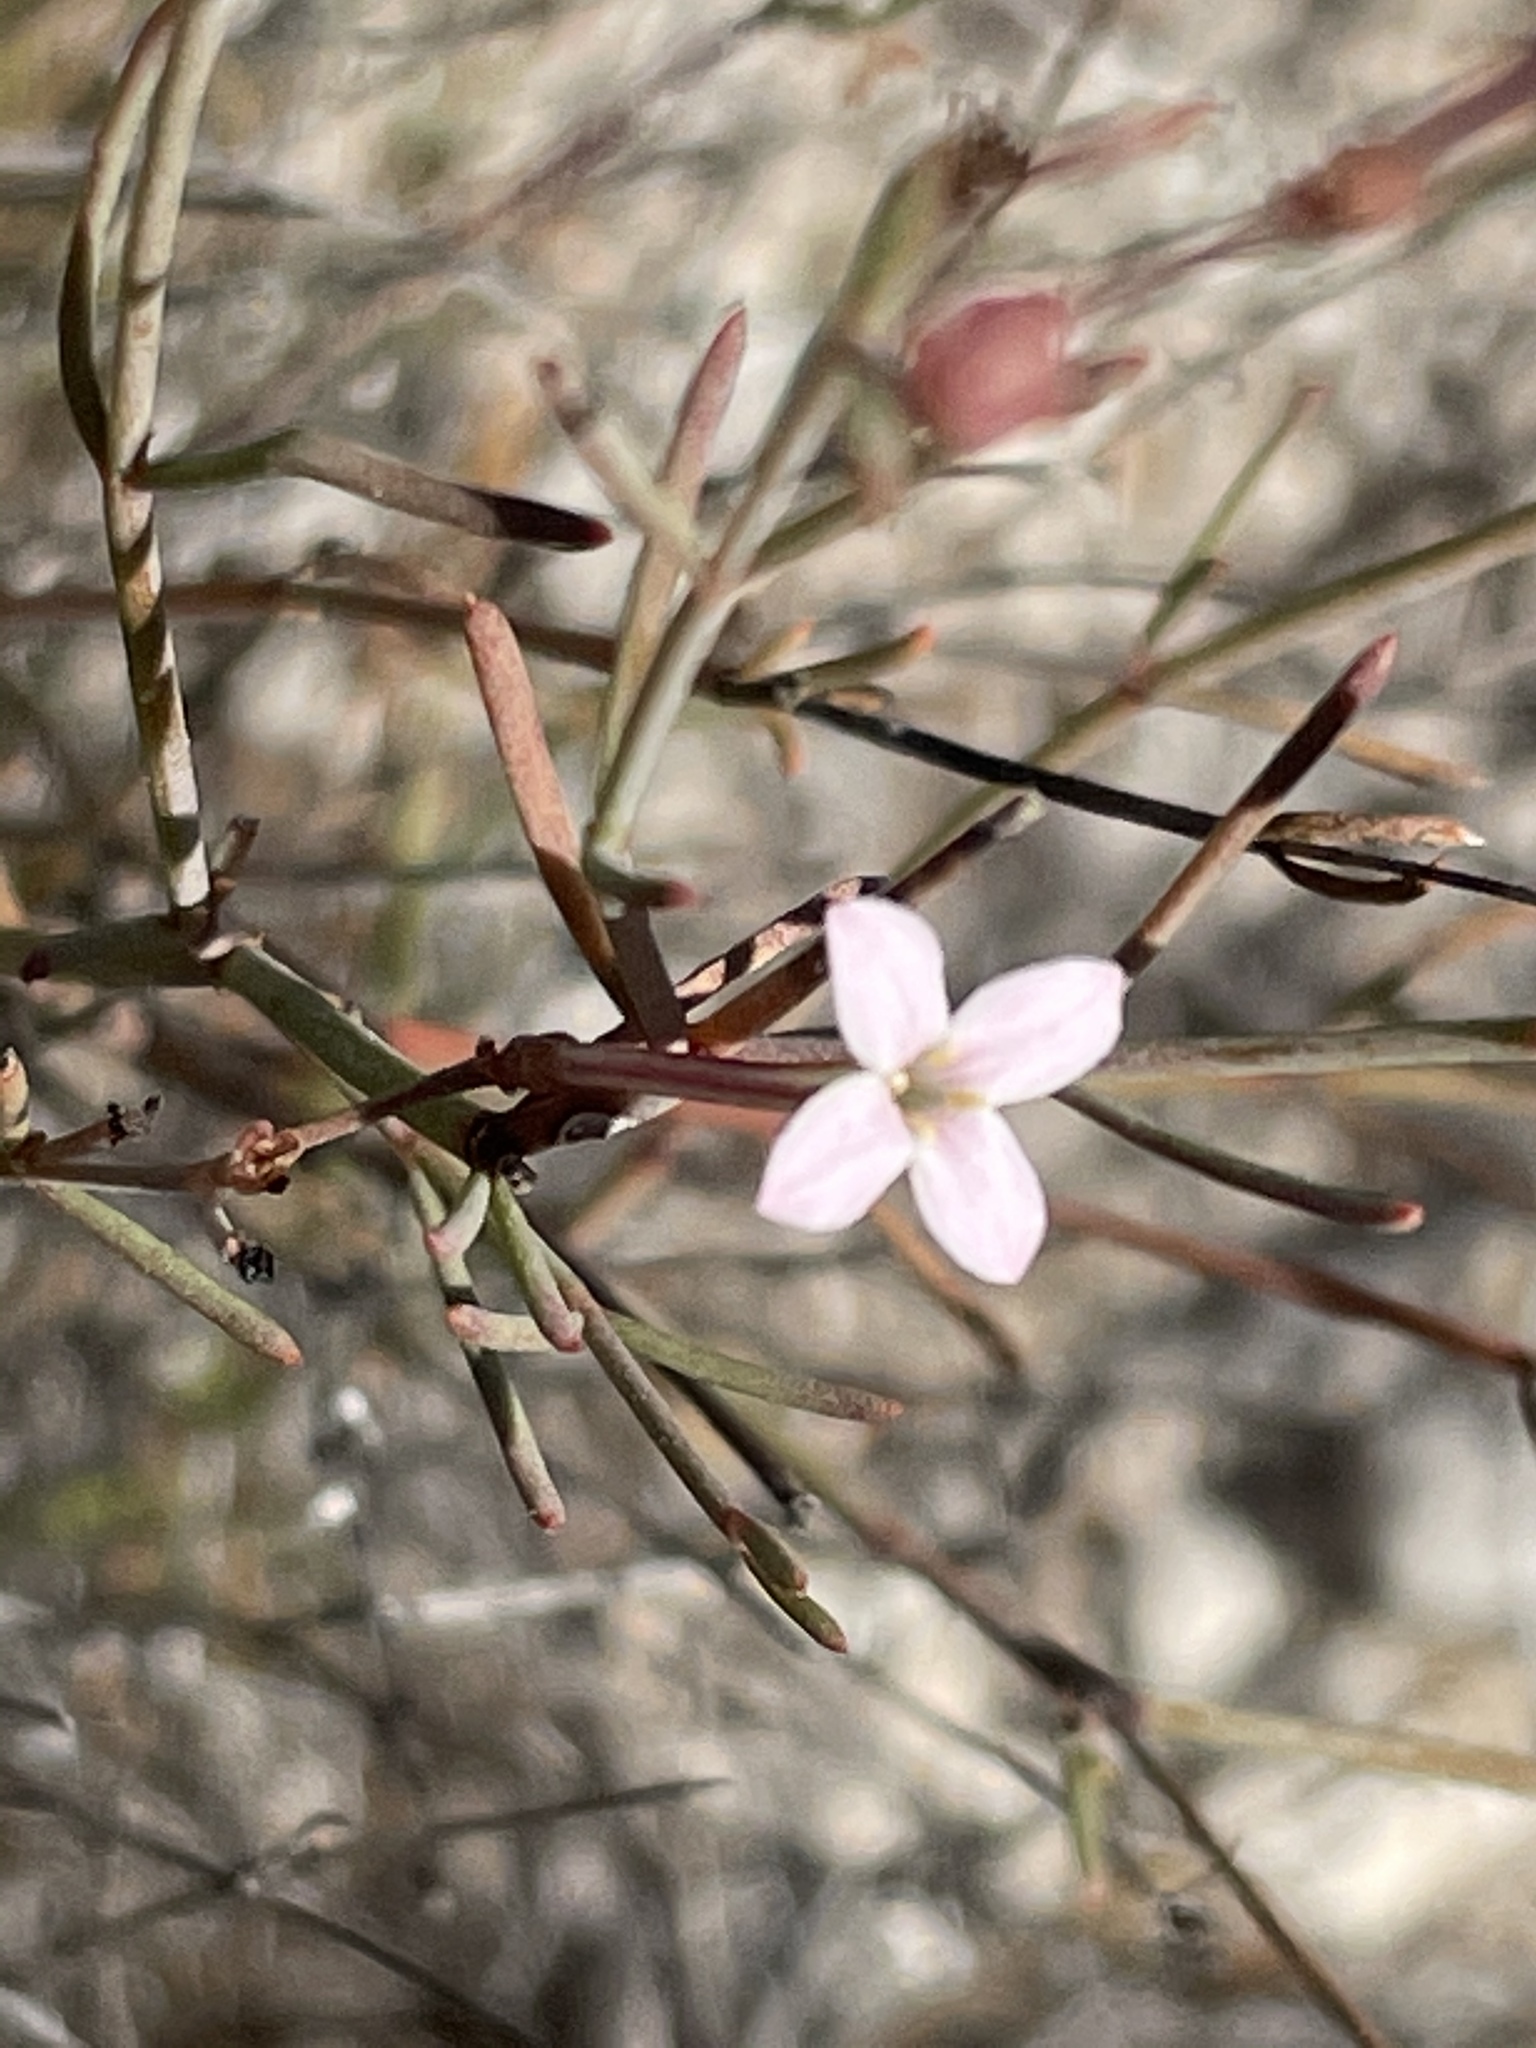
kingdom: Plantae
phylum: Tracheophyta
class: Magnoliopsida
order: Gentianales
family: Rubiaceae
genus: Stenotis
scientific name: Stenotis brevipes
